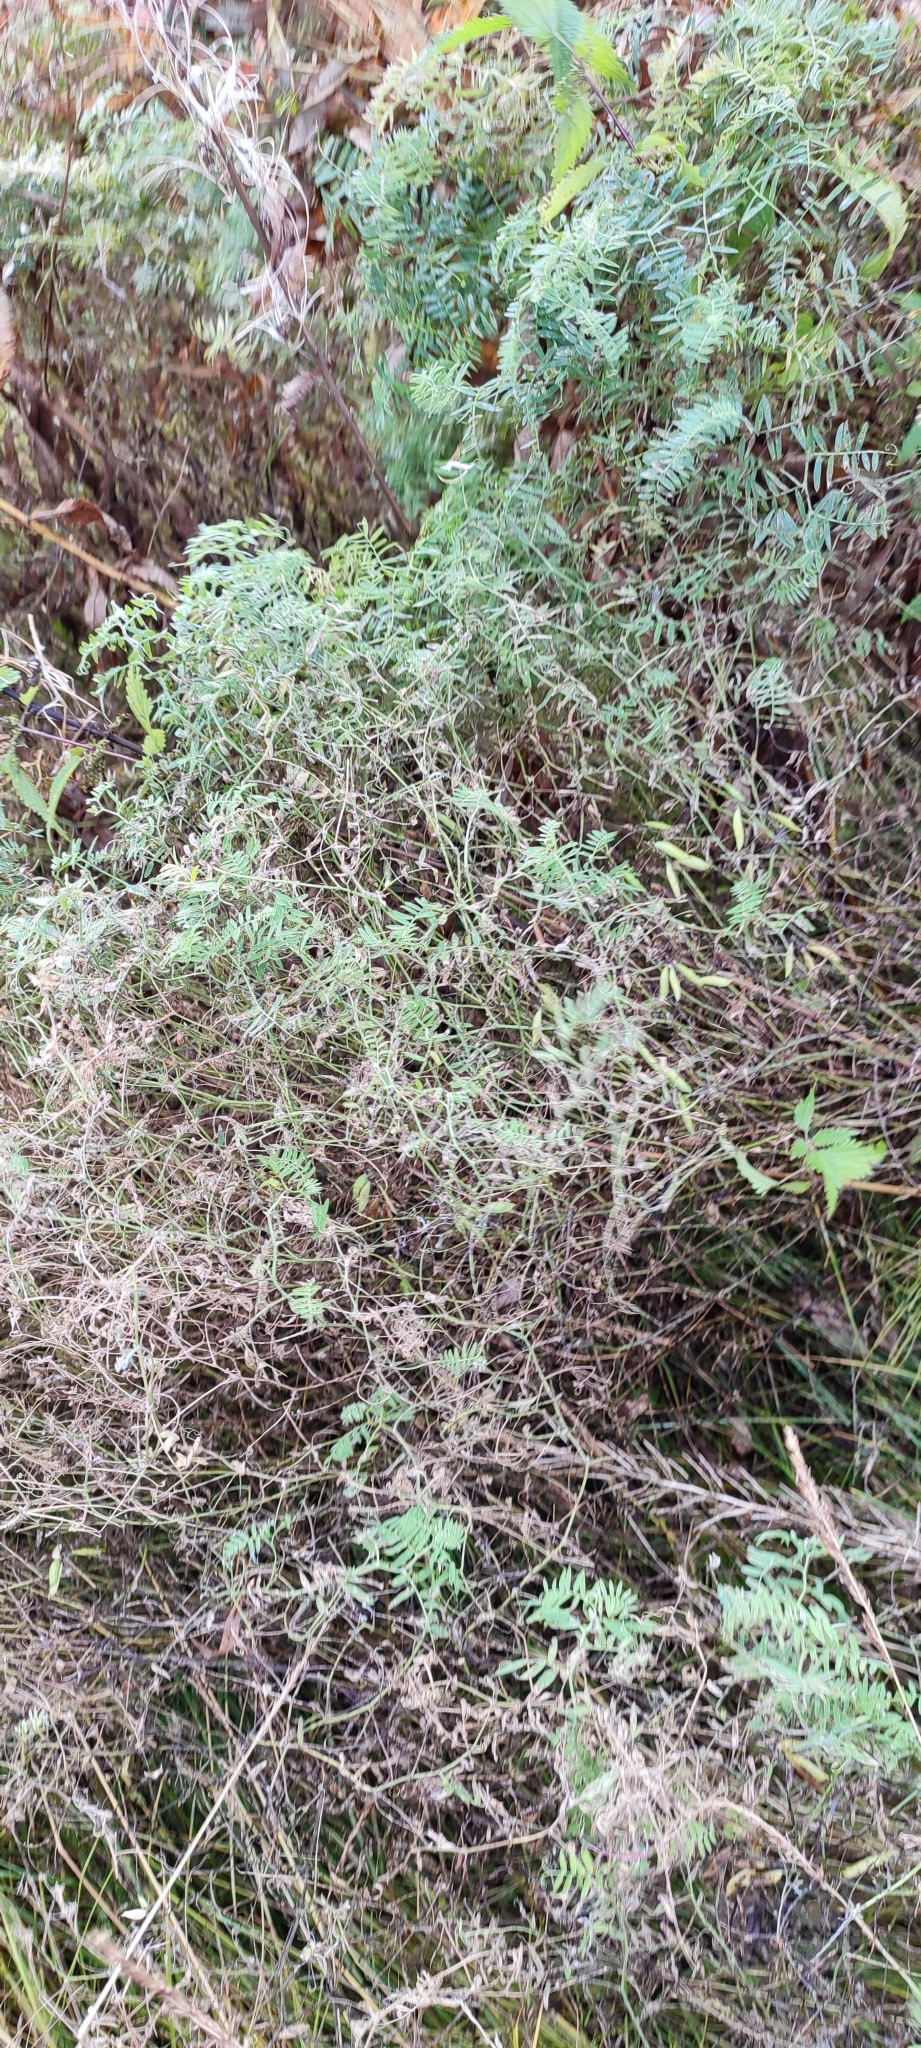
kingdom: Plantae
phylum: Tracheophyta
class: Magnoliopsida
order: Fabales
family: Fabaceae
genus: Vicia
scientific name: Vicia cracca
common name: Bird vetch
